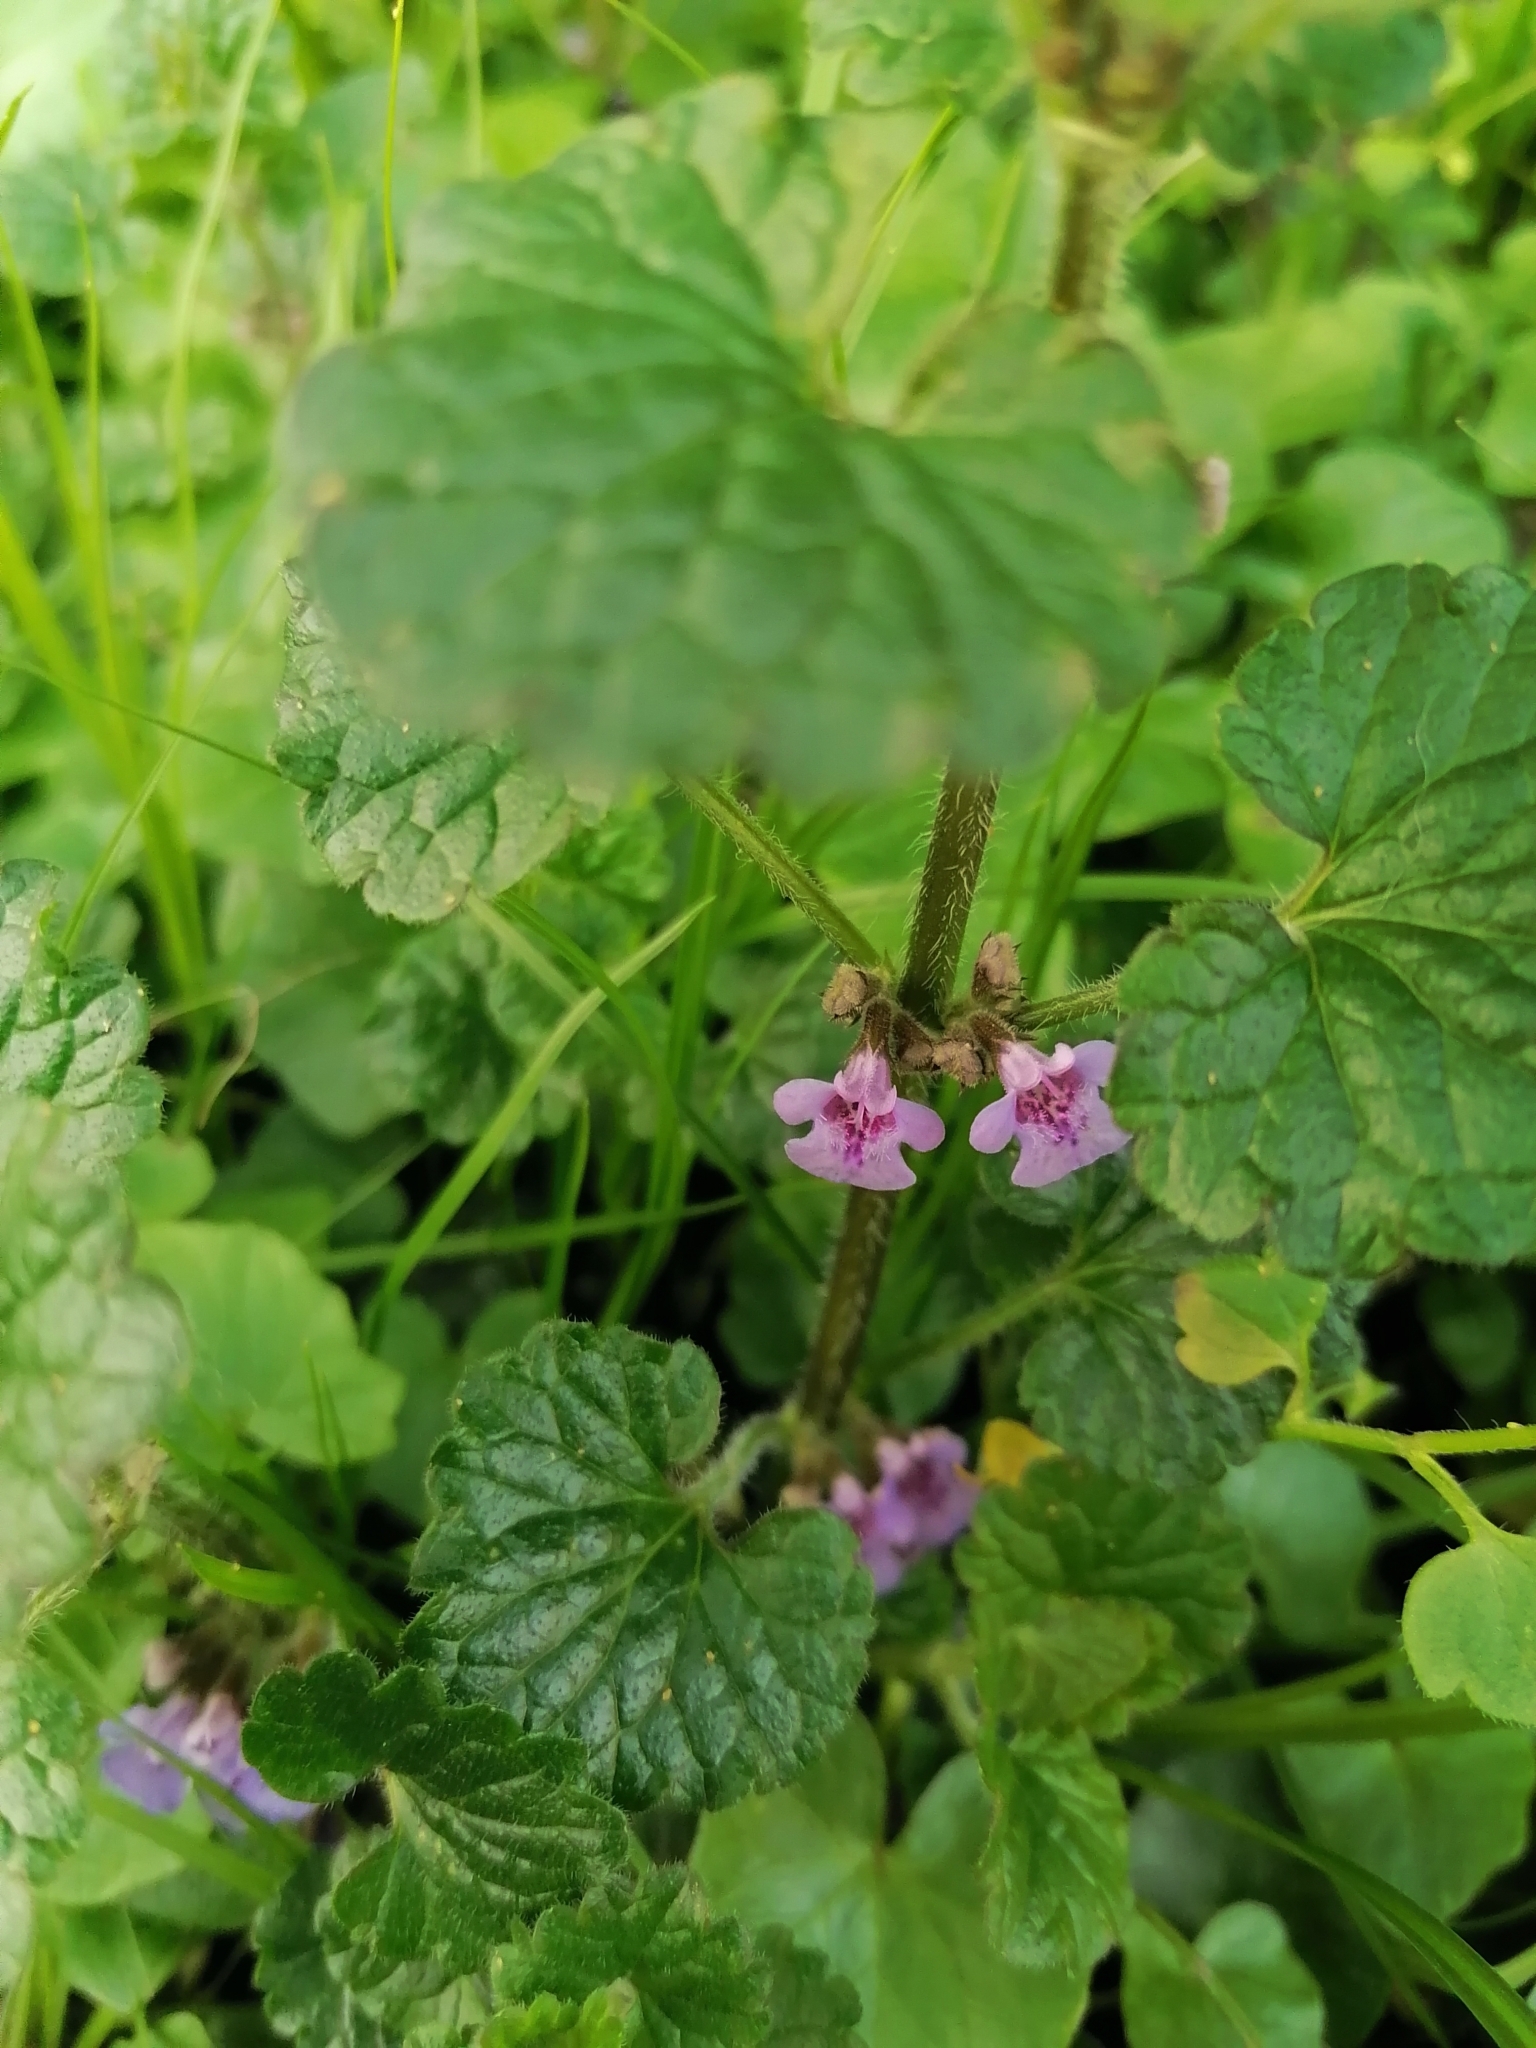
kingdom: Plantae
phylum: Tracheophyta
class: Magnoliopsida
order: Lamiales
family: Lamiaceae
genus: Glechoma
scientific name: Glechoma hederacea
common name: Ground ivy
